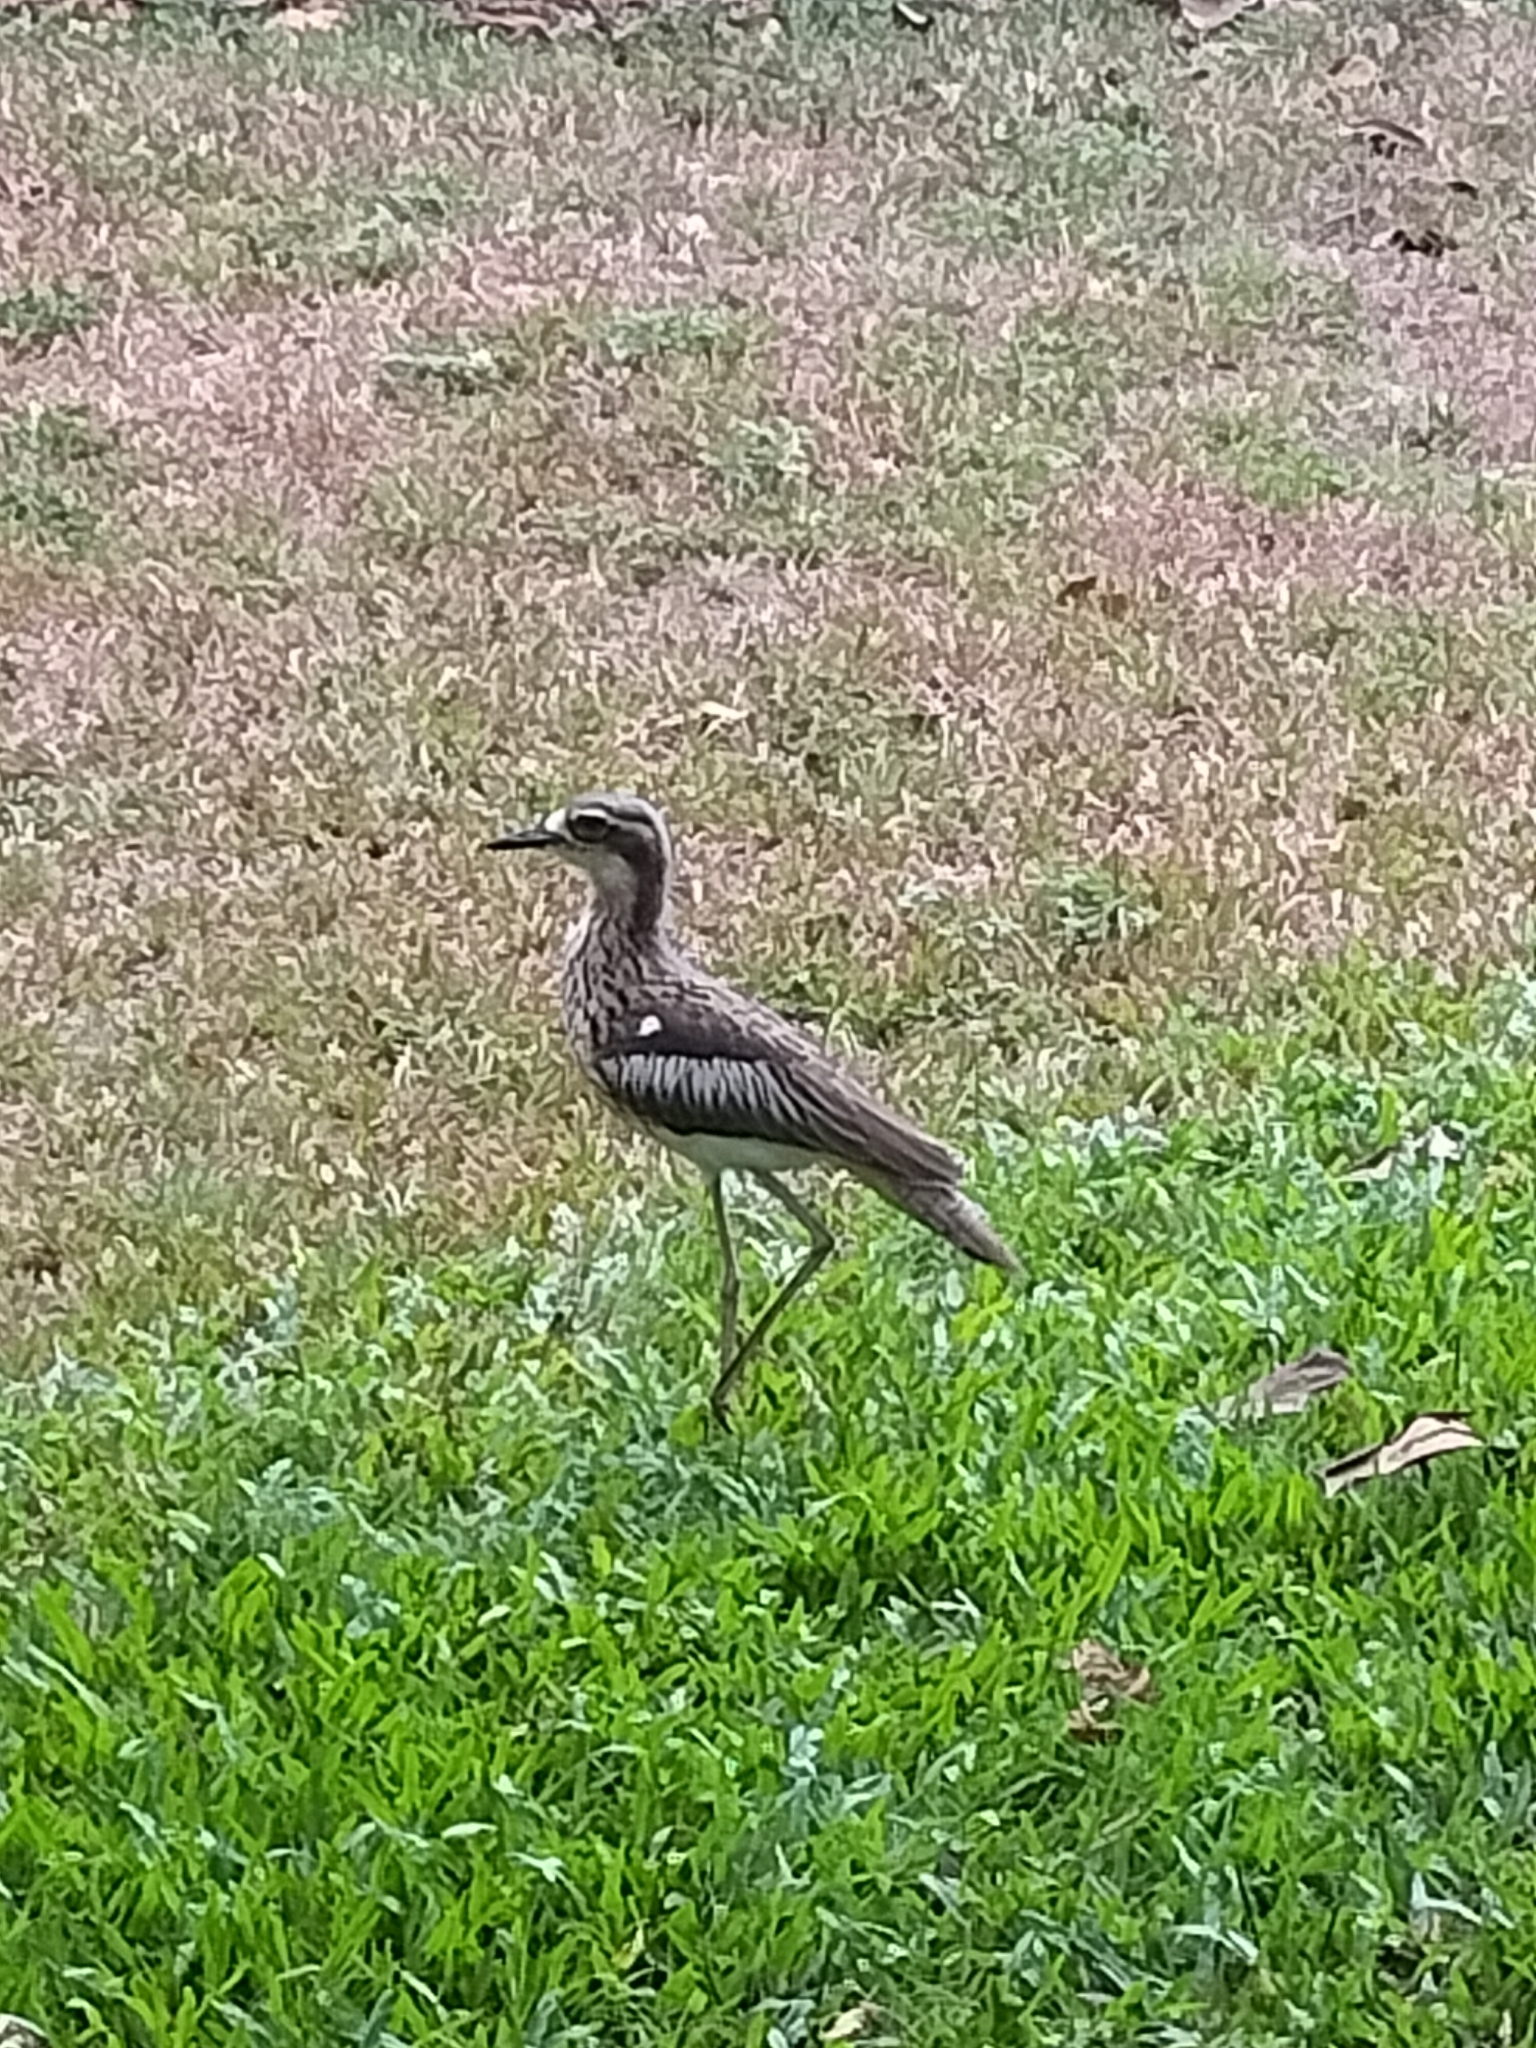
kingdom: Animalia
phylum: Chordata
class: Aves
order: Charadriiformes
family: Burhinidae
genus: Burhinus
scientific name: Burhinus grallarius
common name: Bush stone-curlew
